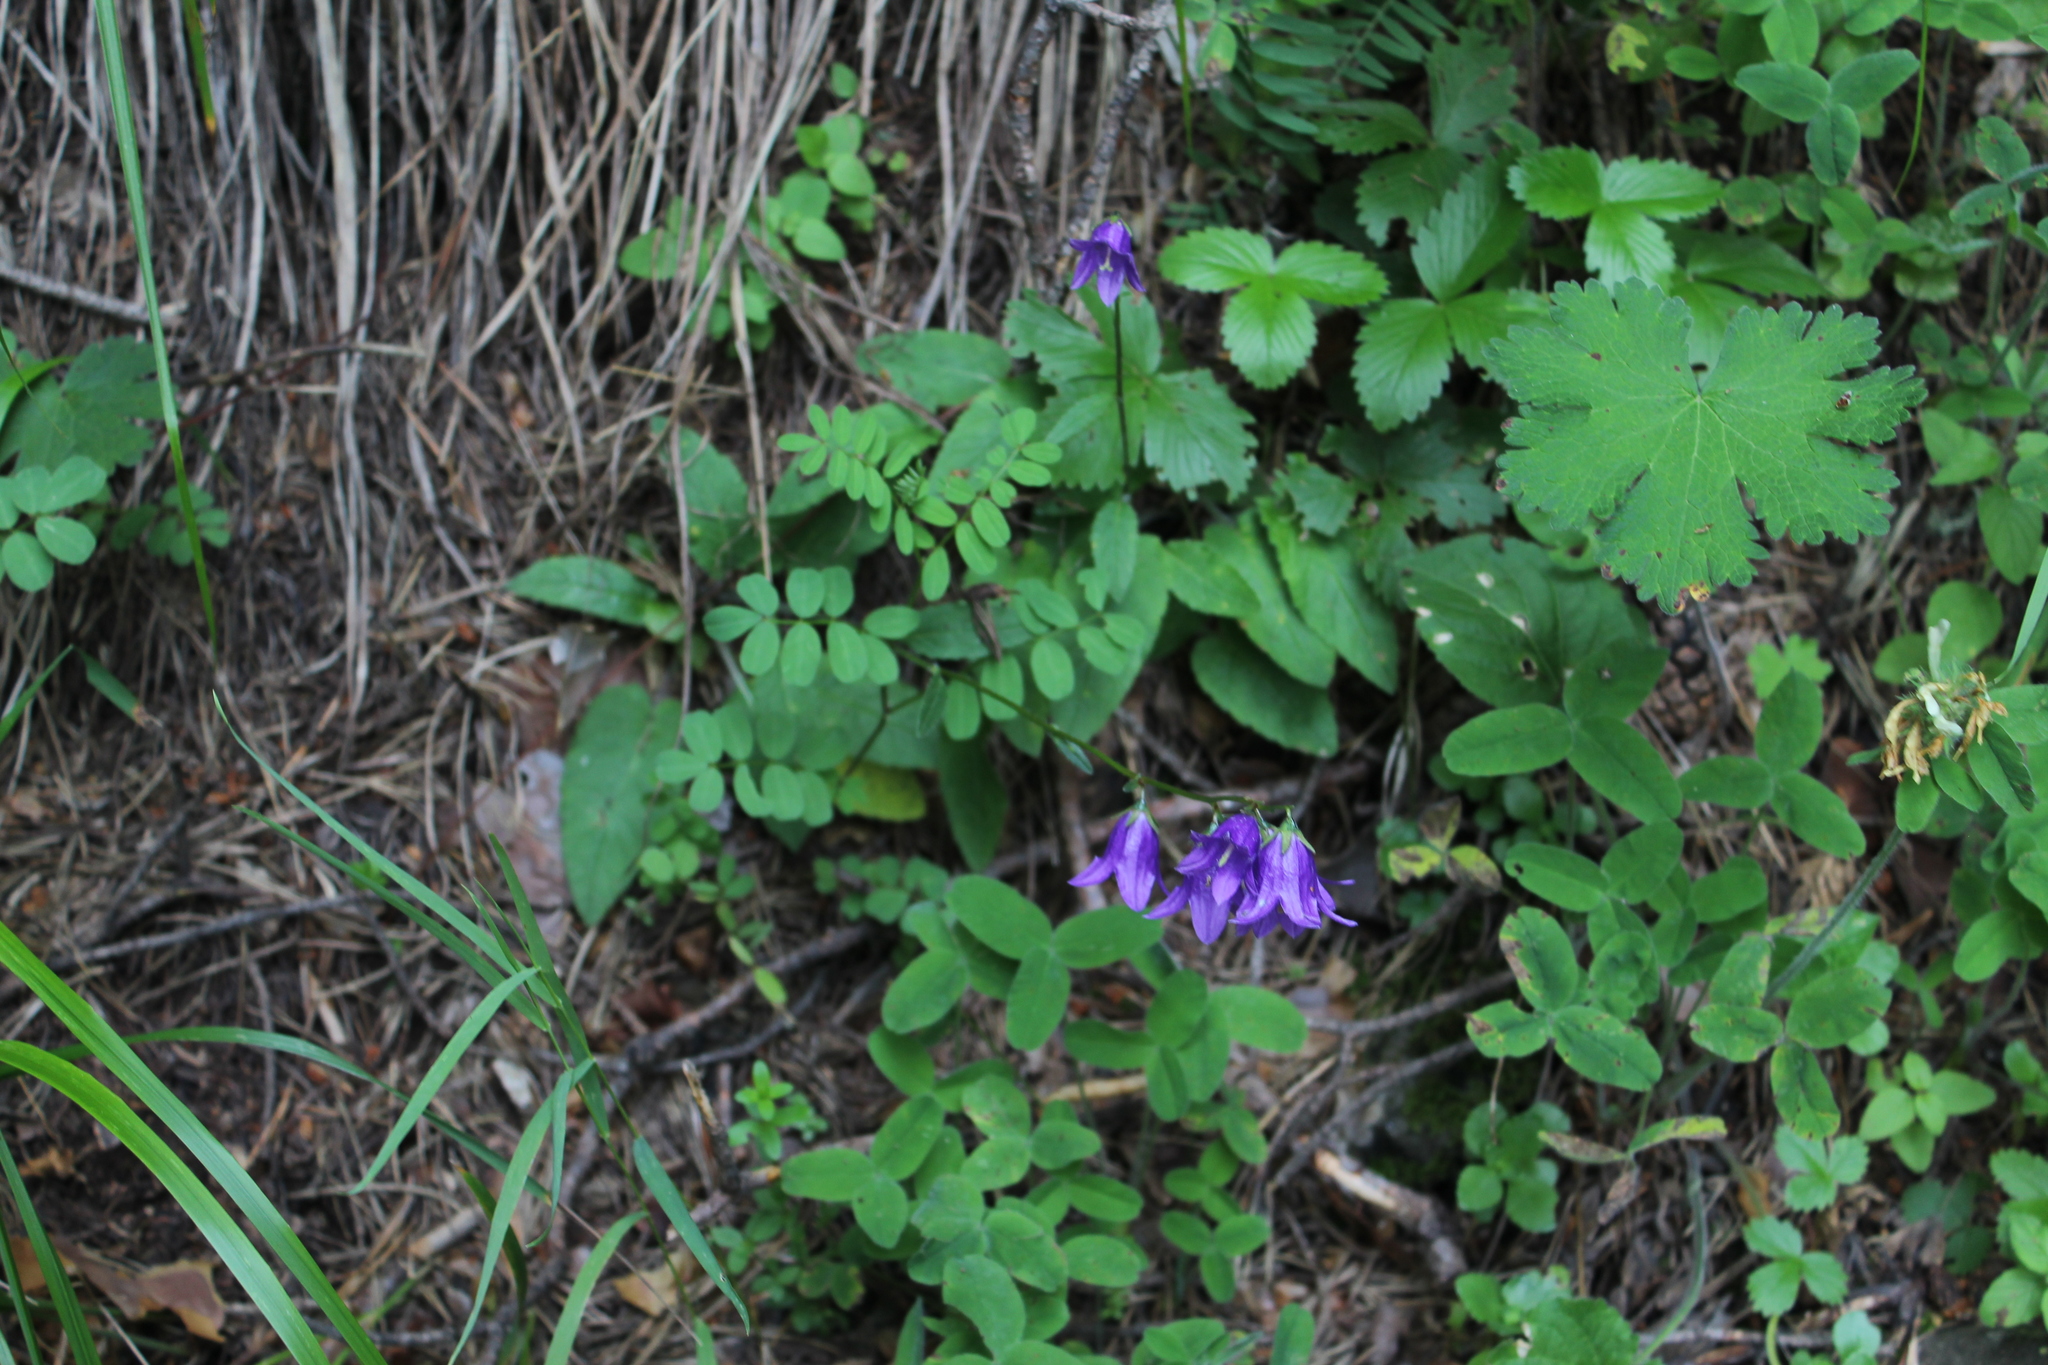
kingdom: Plantae
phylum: Tracheophyta
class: Magnoliopsida
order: Asterales
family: Campanulaceae
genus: Campanula
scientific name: Campanula collina
